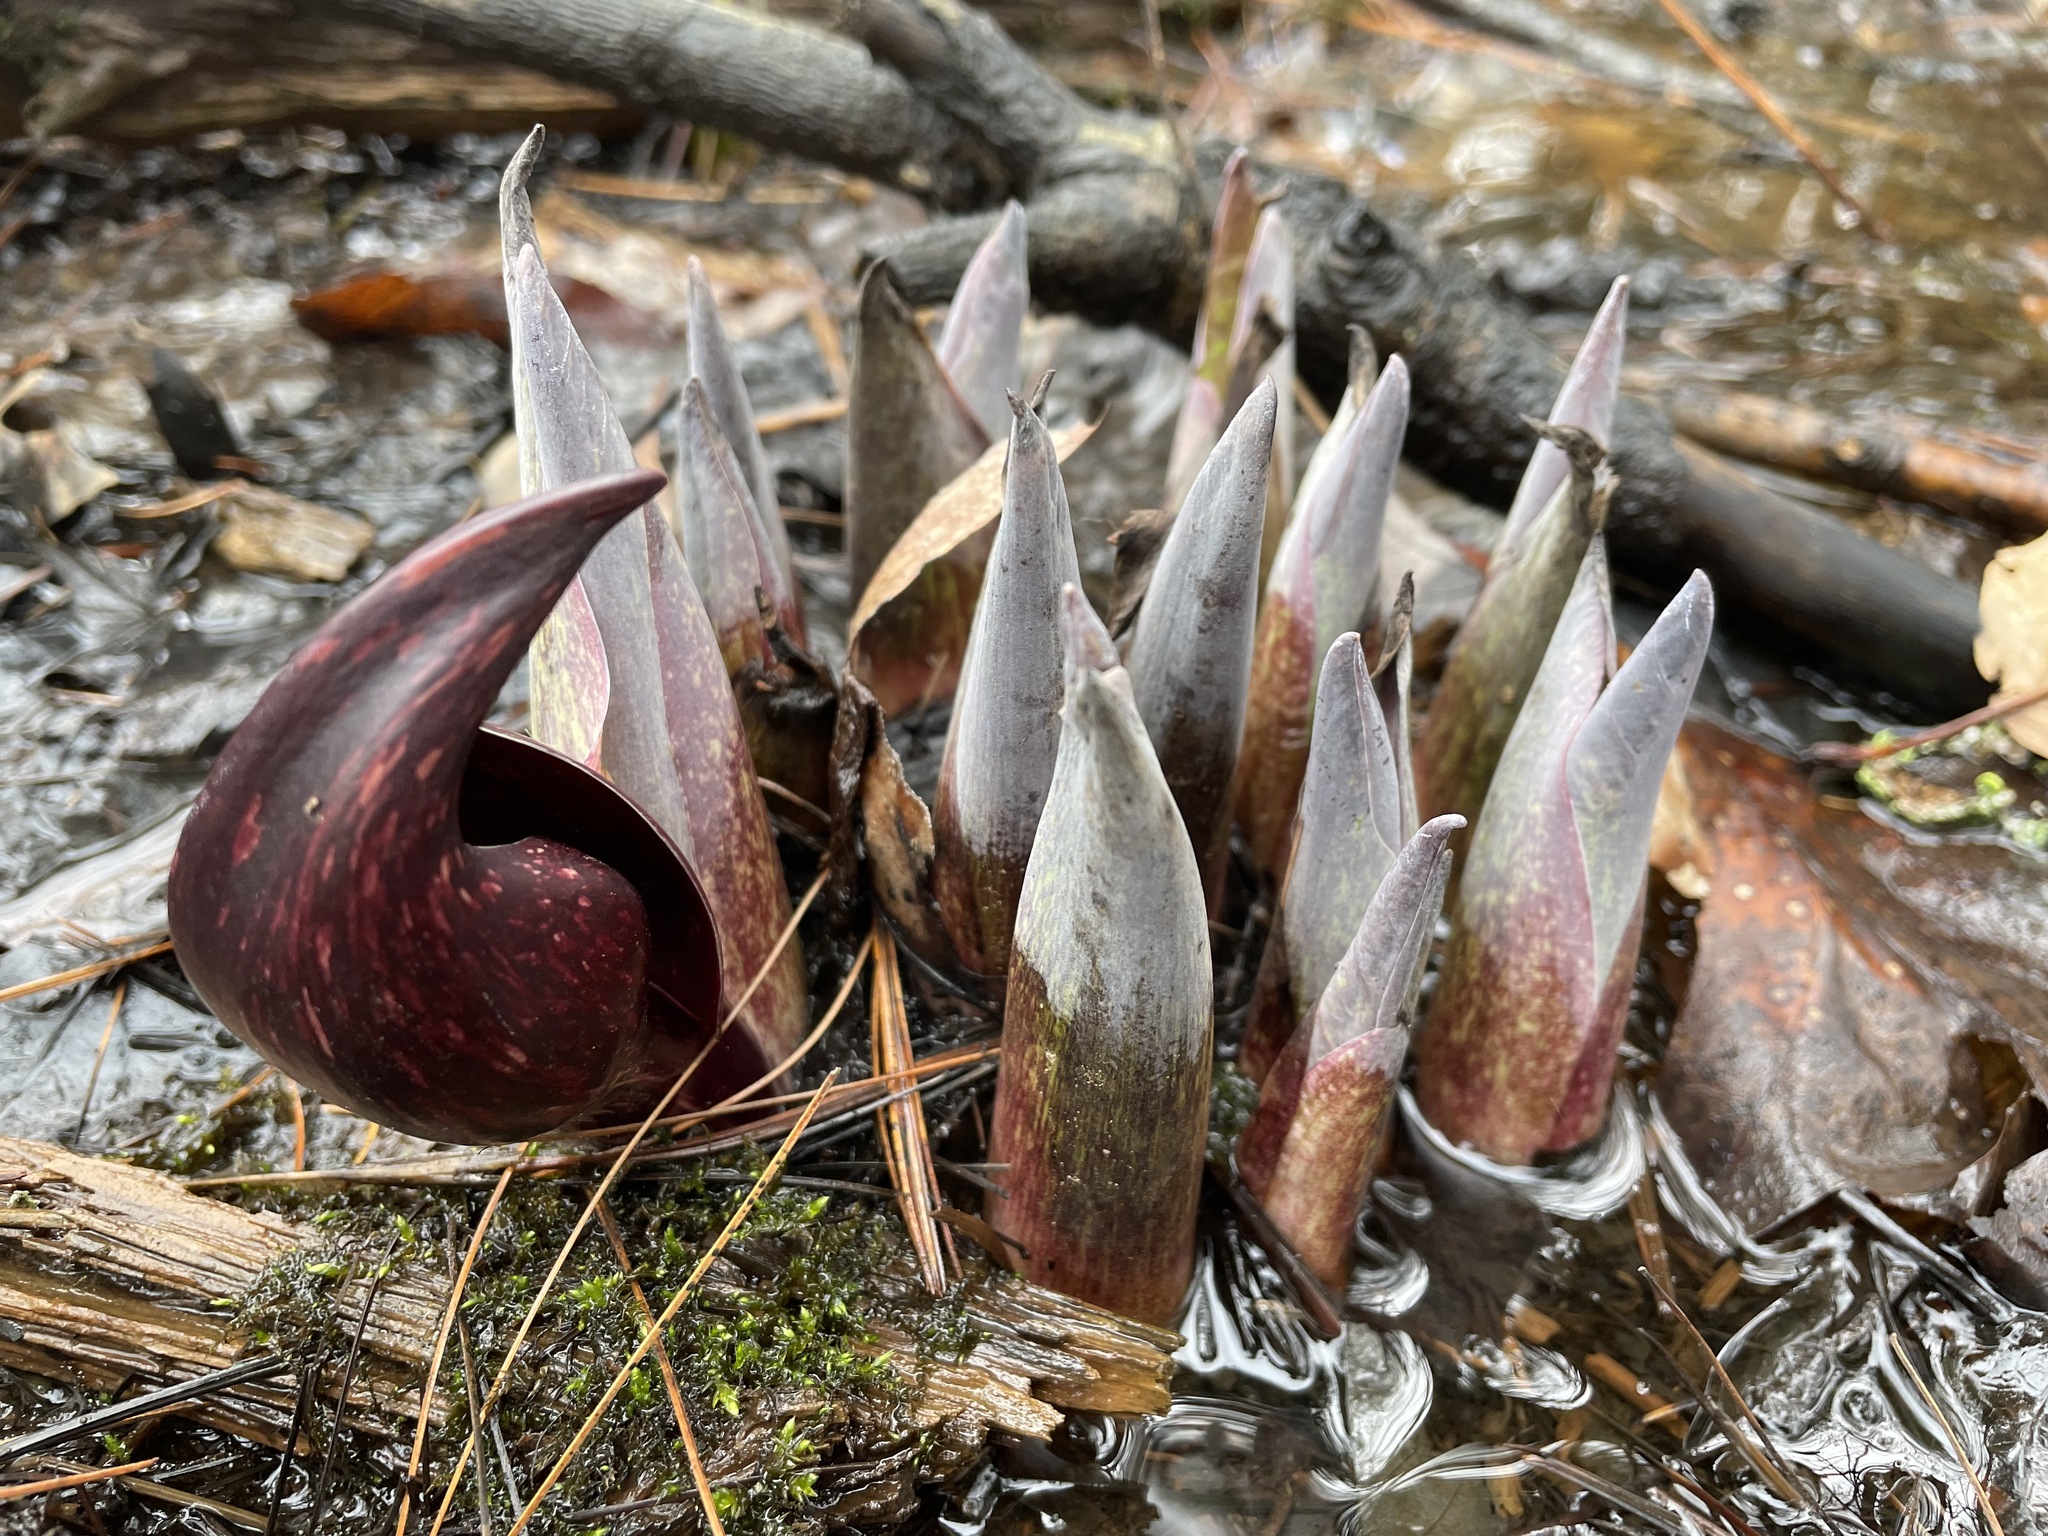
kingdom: Plantae
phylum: Tracheophyta
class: Liliopsida
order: Alismatales
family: Araceae
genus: Symplocarpus
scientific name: Symplocarpus foetidus
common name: Eastern skunk cabbage
